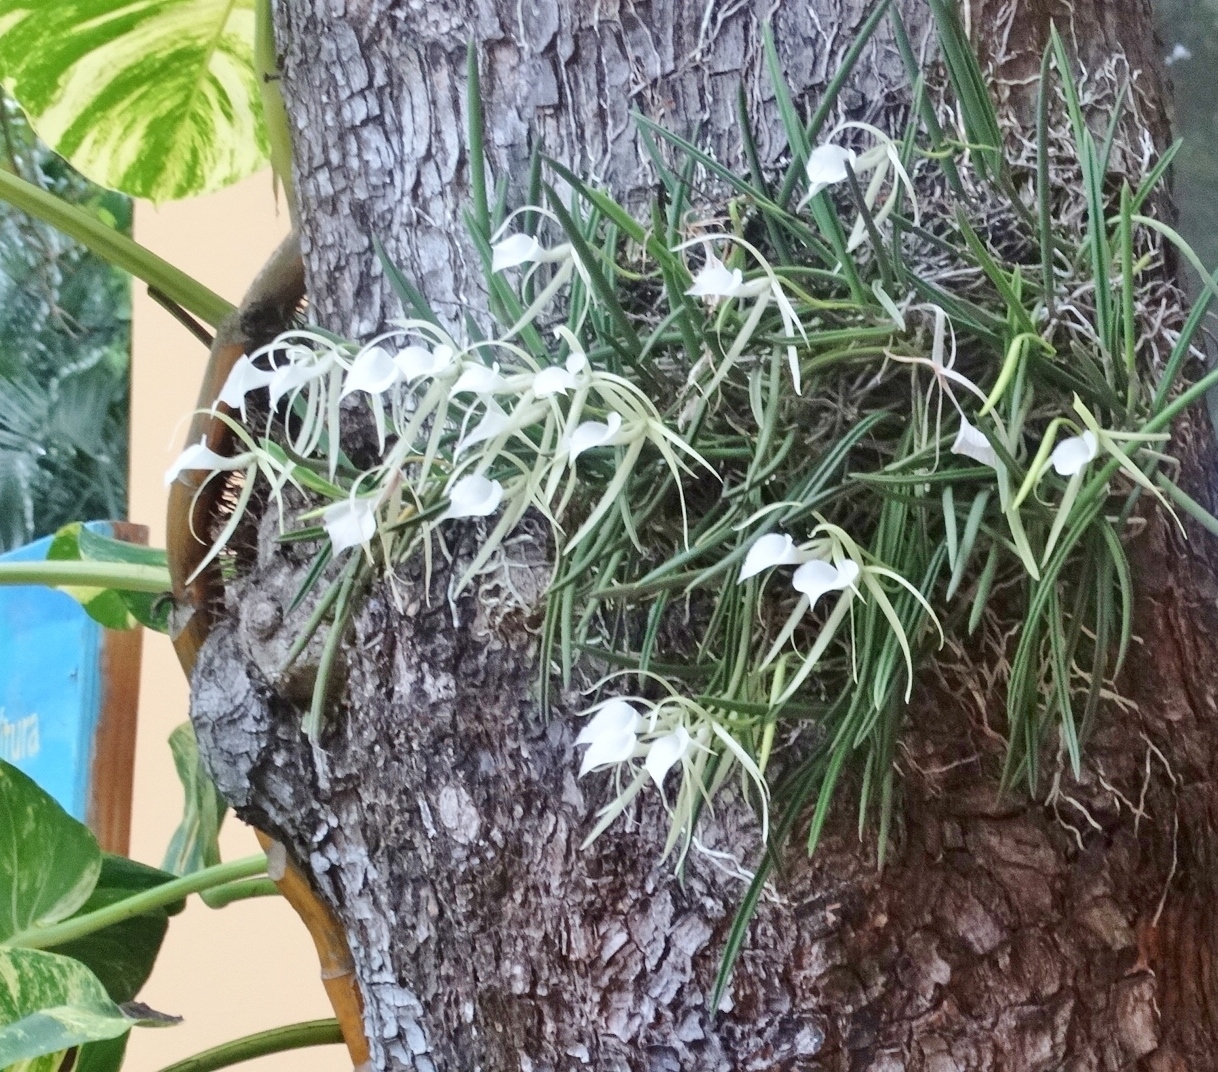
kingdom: Plantae
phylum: Tracheophyta
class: Liliopsida
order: Asparagales
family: Orchidaceae
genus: Brassavola
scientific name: Brassavola nodosa
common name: Lady of the night
